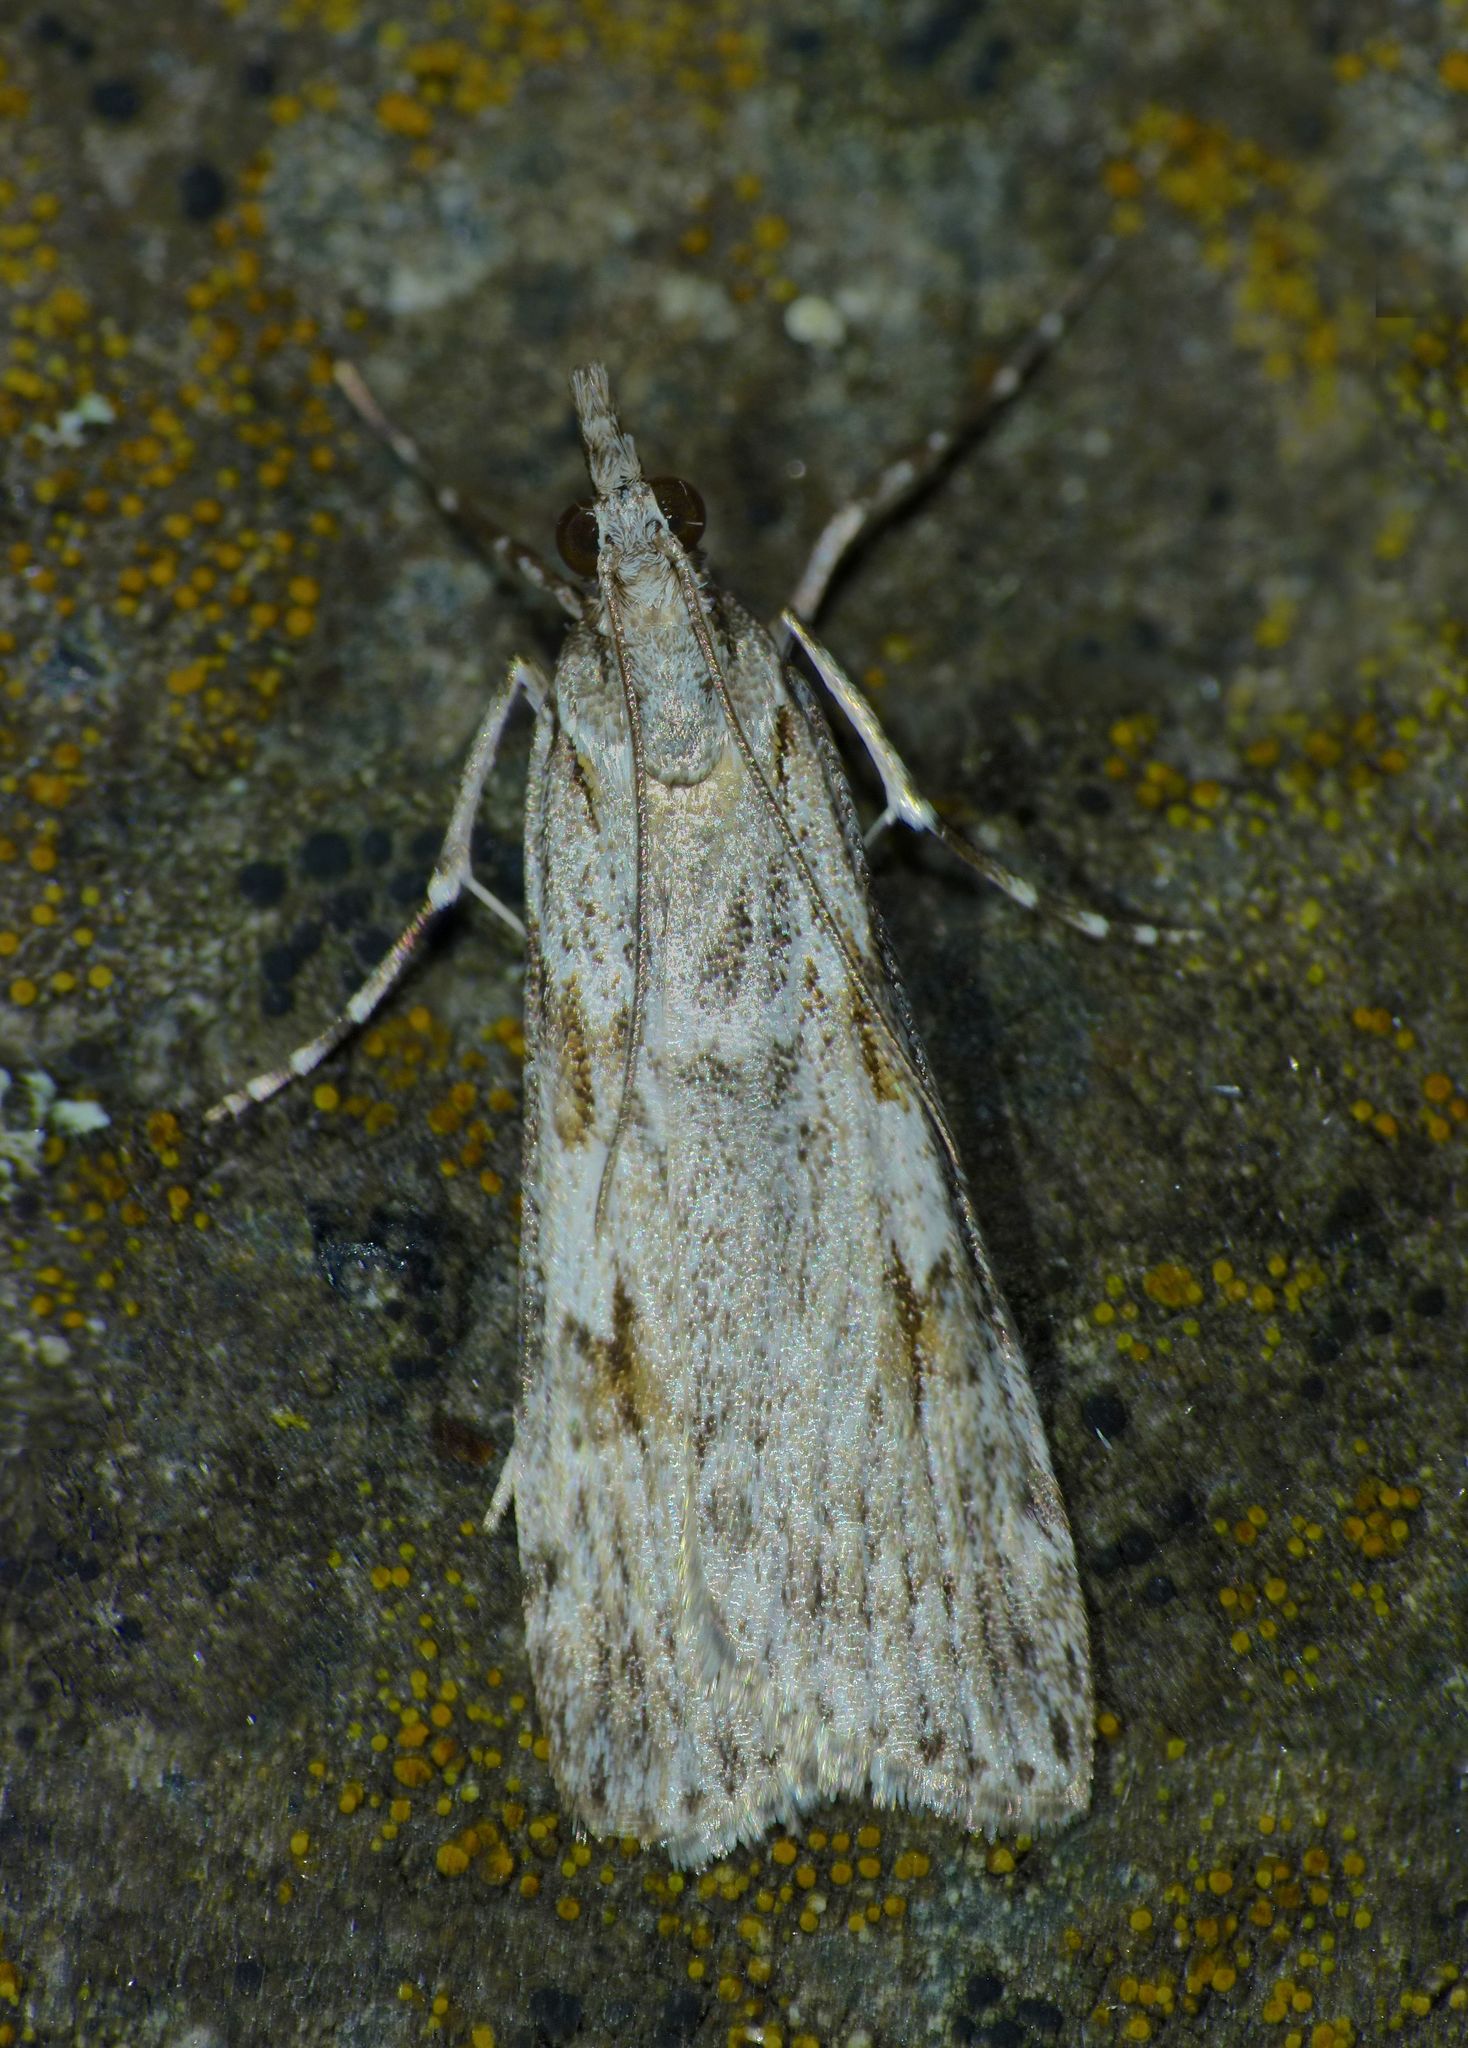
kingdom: Animalia
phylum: Arthropoda
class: Insecta
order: Lepidoptera
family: Crambidae
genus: Scoparia
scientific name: Scoparia halopis
